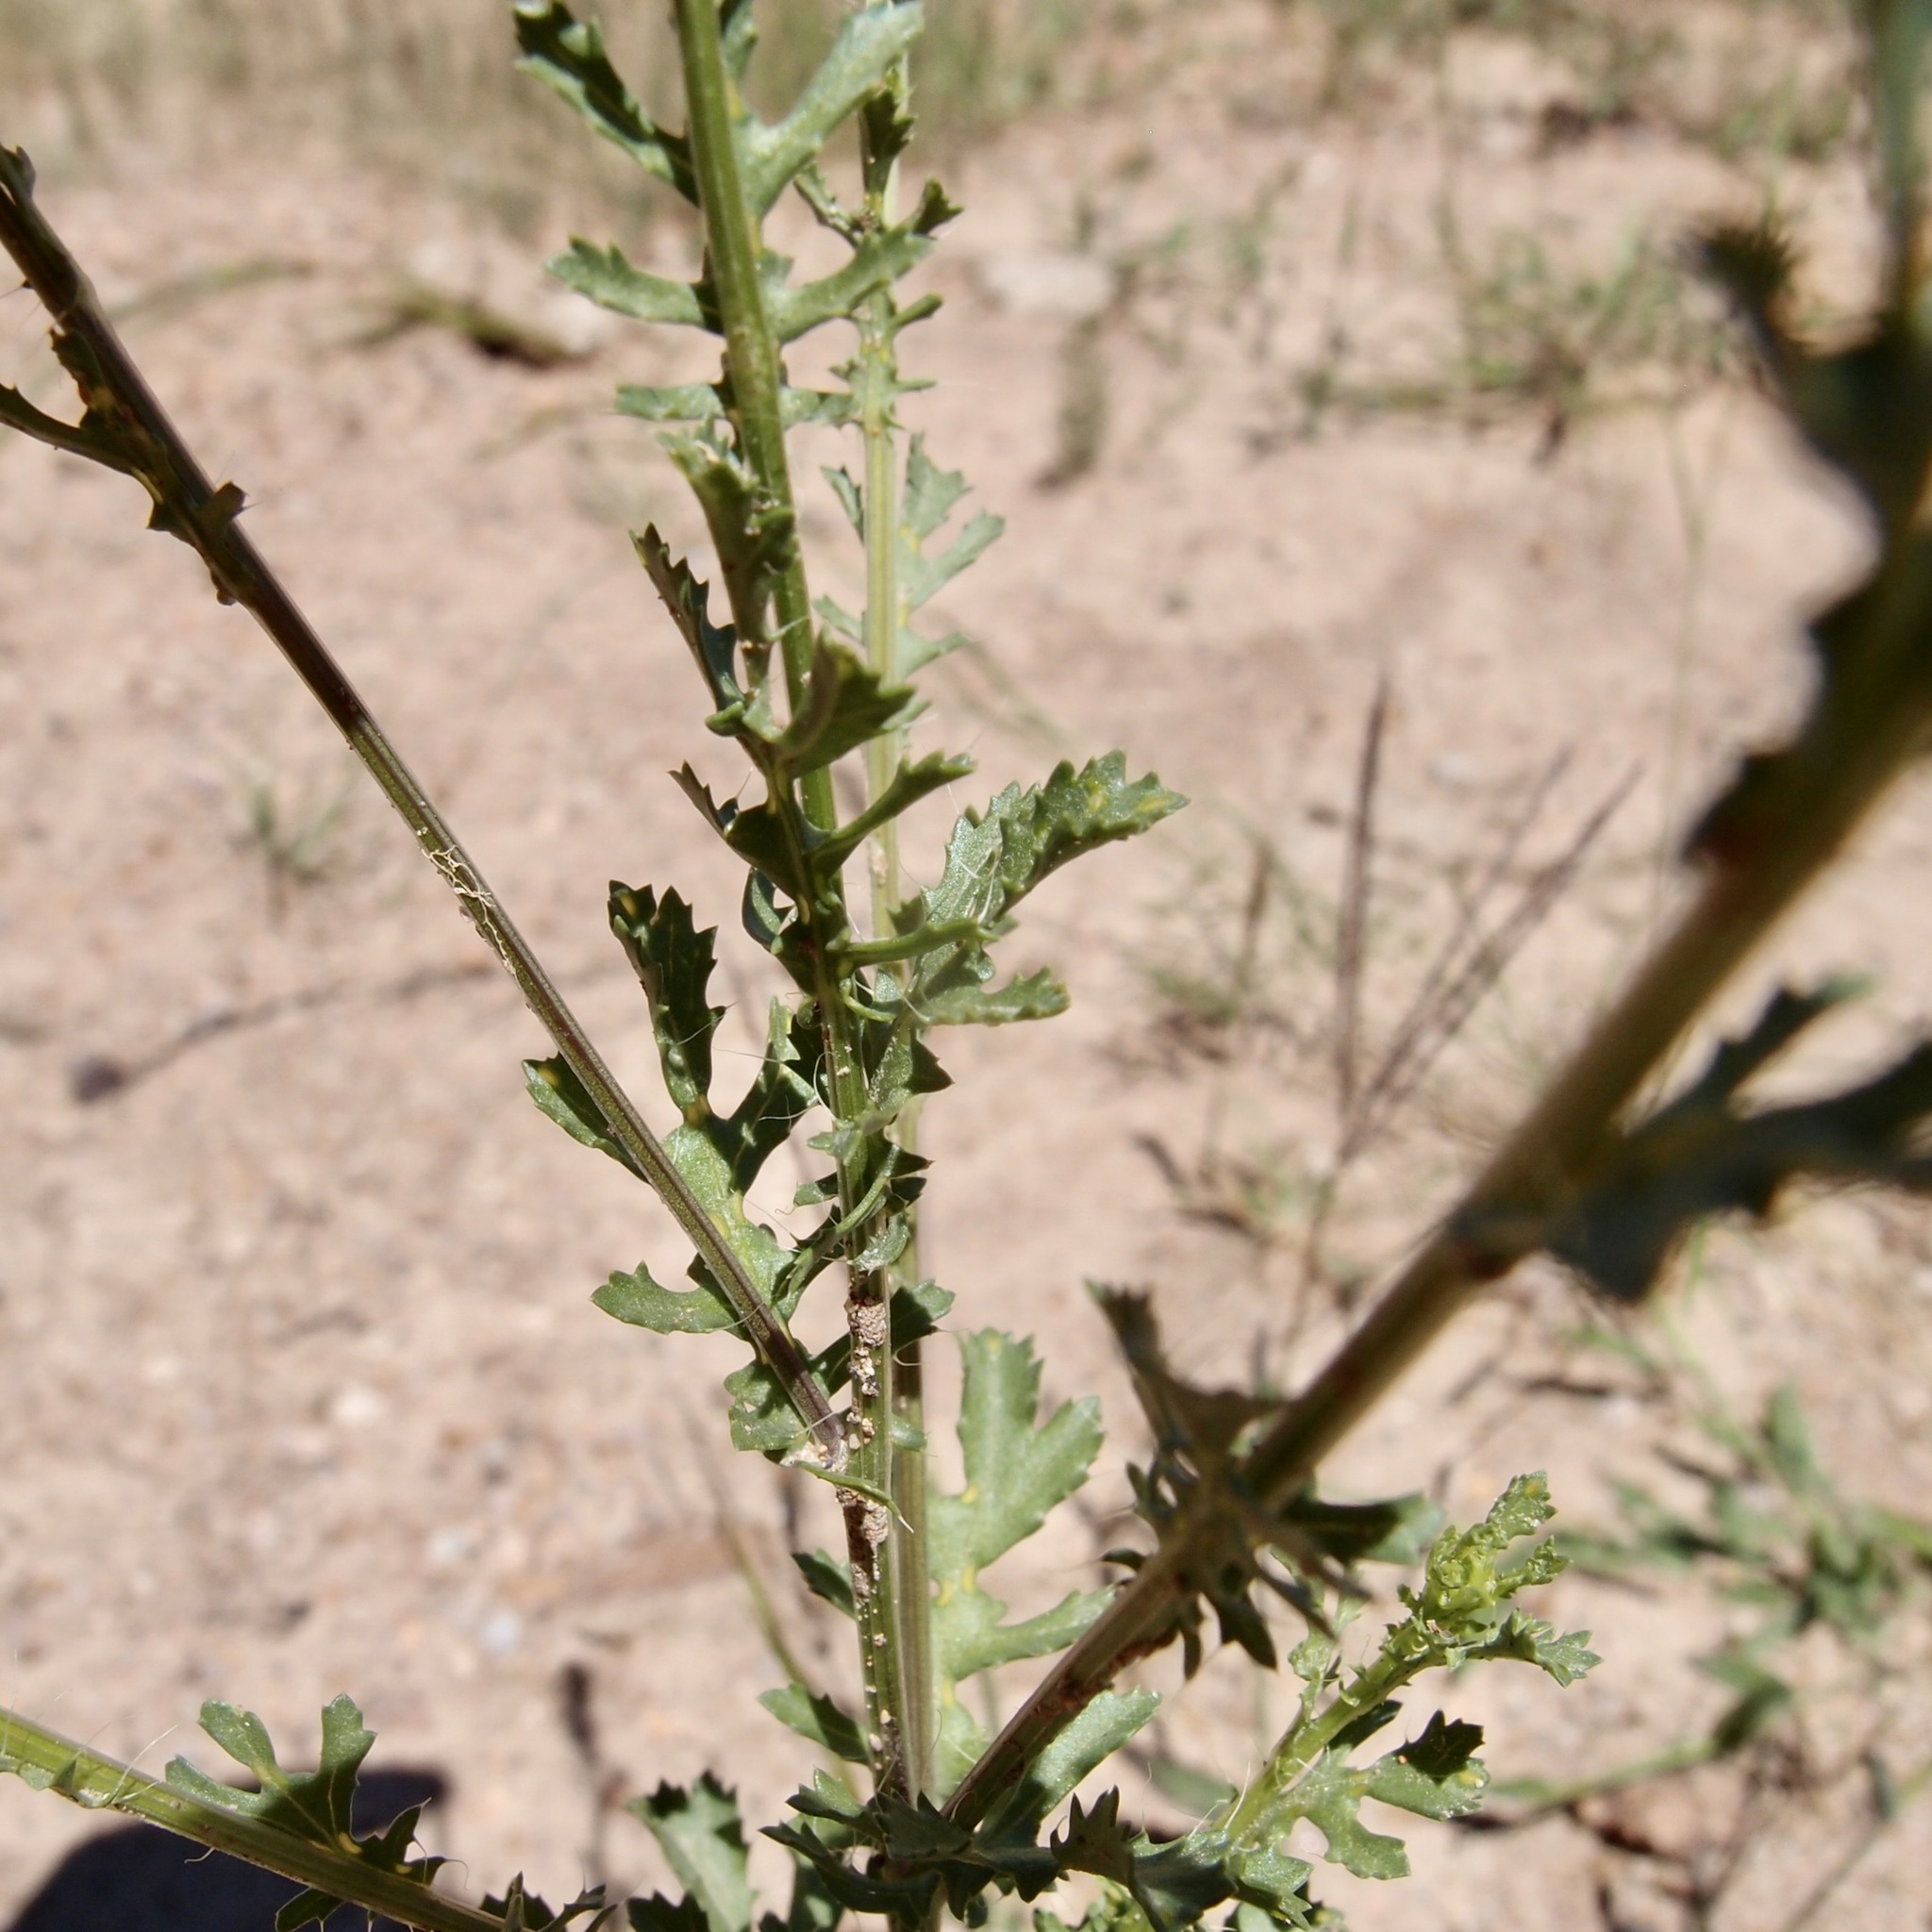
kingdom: Plantae
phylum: Tracheophyta
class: Magnoliopsida
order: Asterales
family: Asteraceae
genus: Adenophyllum
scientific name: Adenophyllum porophyllum
